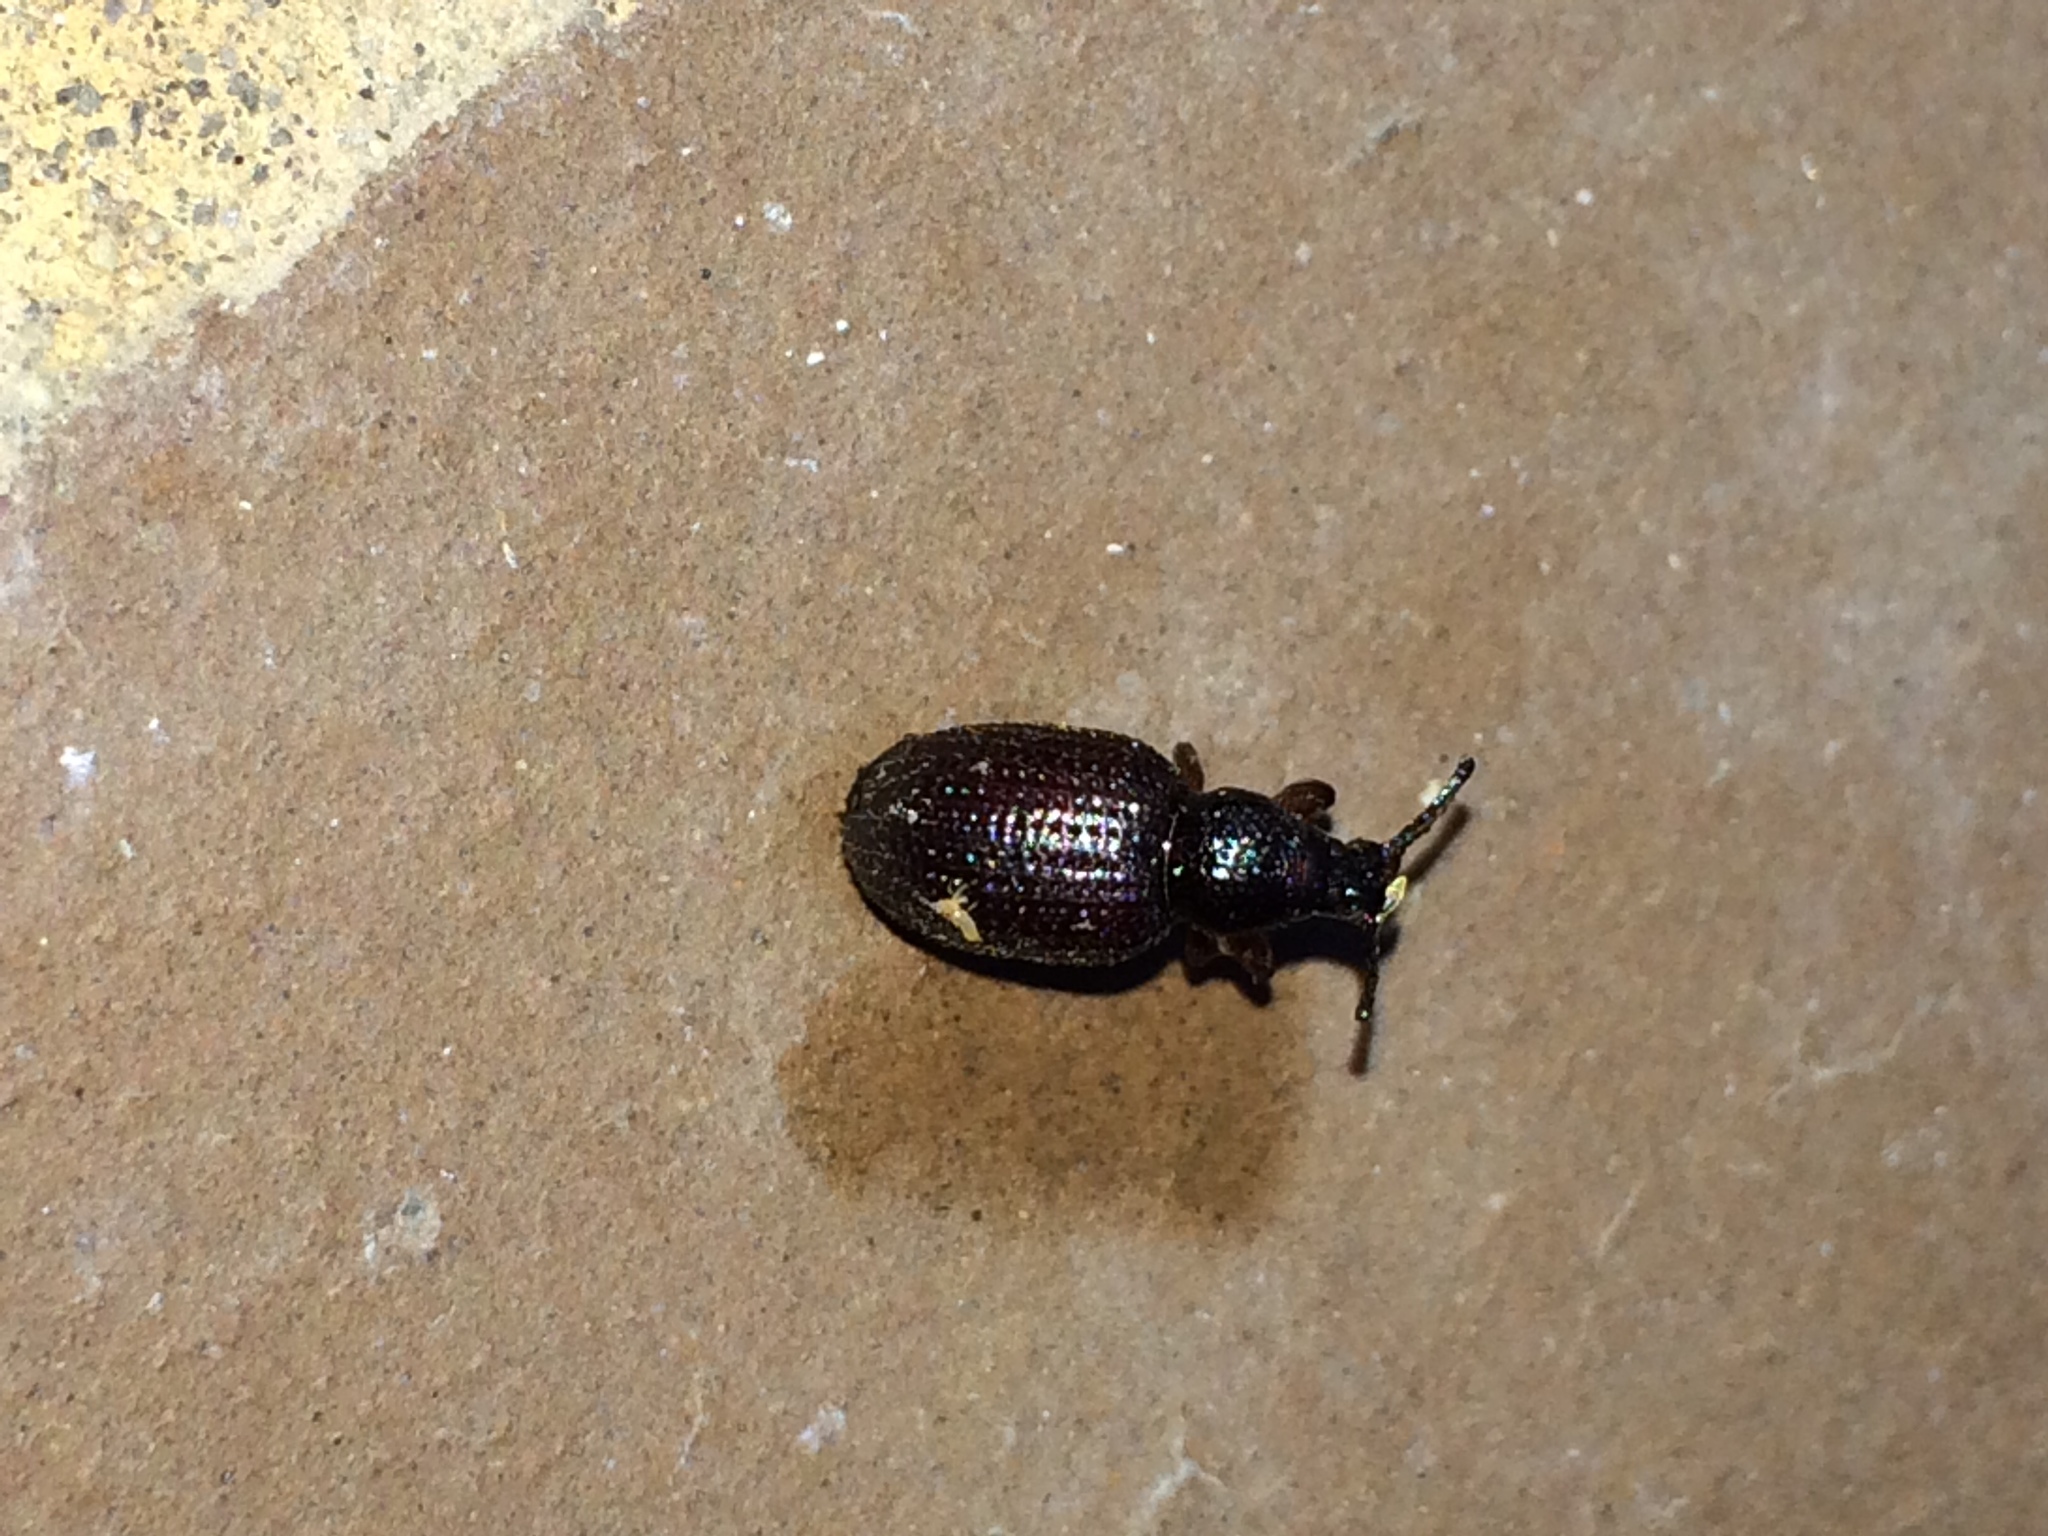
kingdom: Animalia
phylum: Arthropoda
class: Insecta
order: Coleoptera
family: Curculionidae
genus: Otiorhynchus
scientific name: Otiorhynchus cribricollis
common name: Weevil
